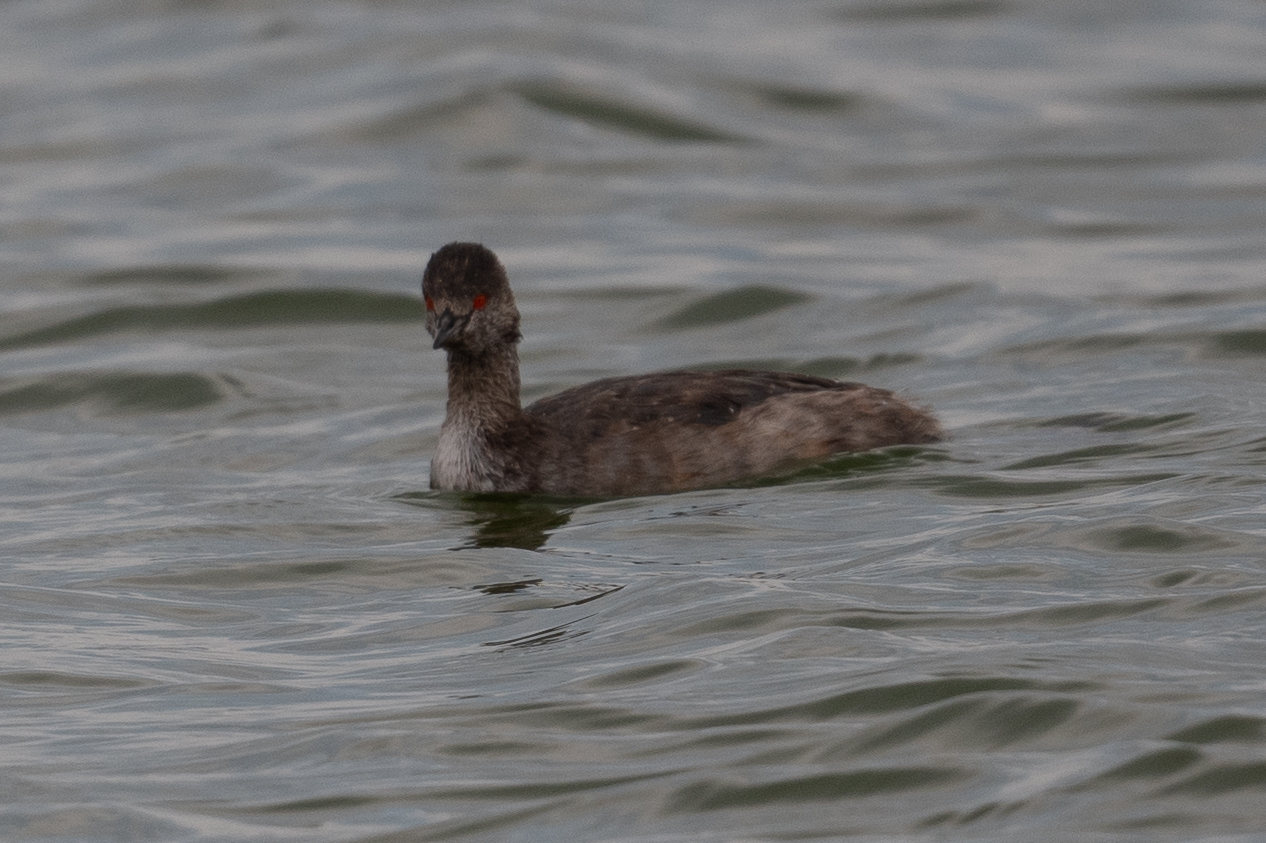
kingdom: Animalia
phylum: Chordata
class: Aves
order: Podicipediformes
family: Podicipedidae
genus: Podiceps
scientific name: Podiceps nigricollis
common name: Black-necked grebe
